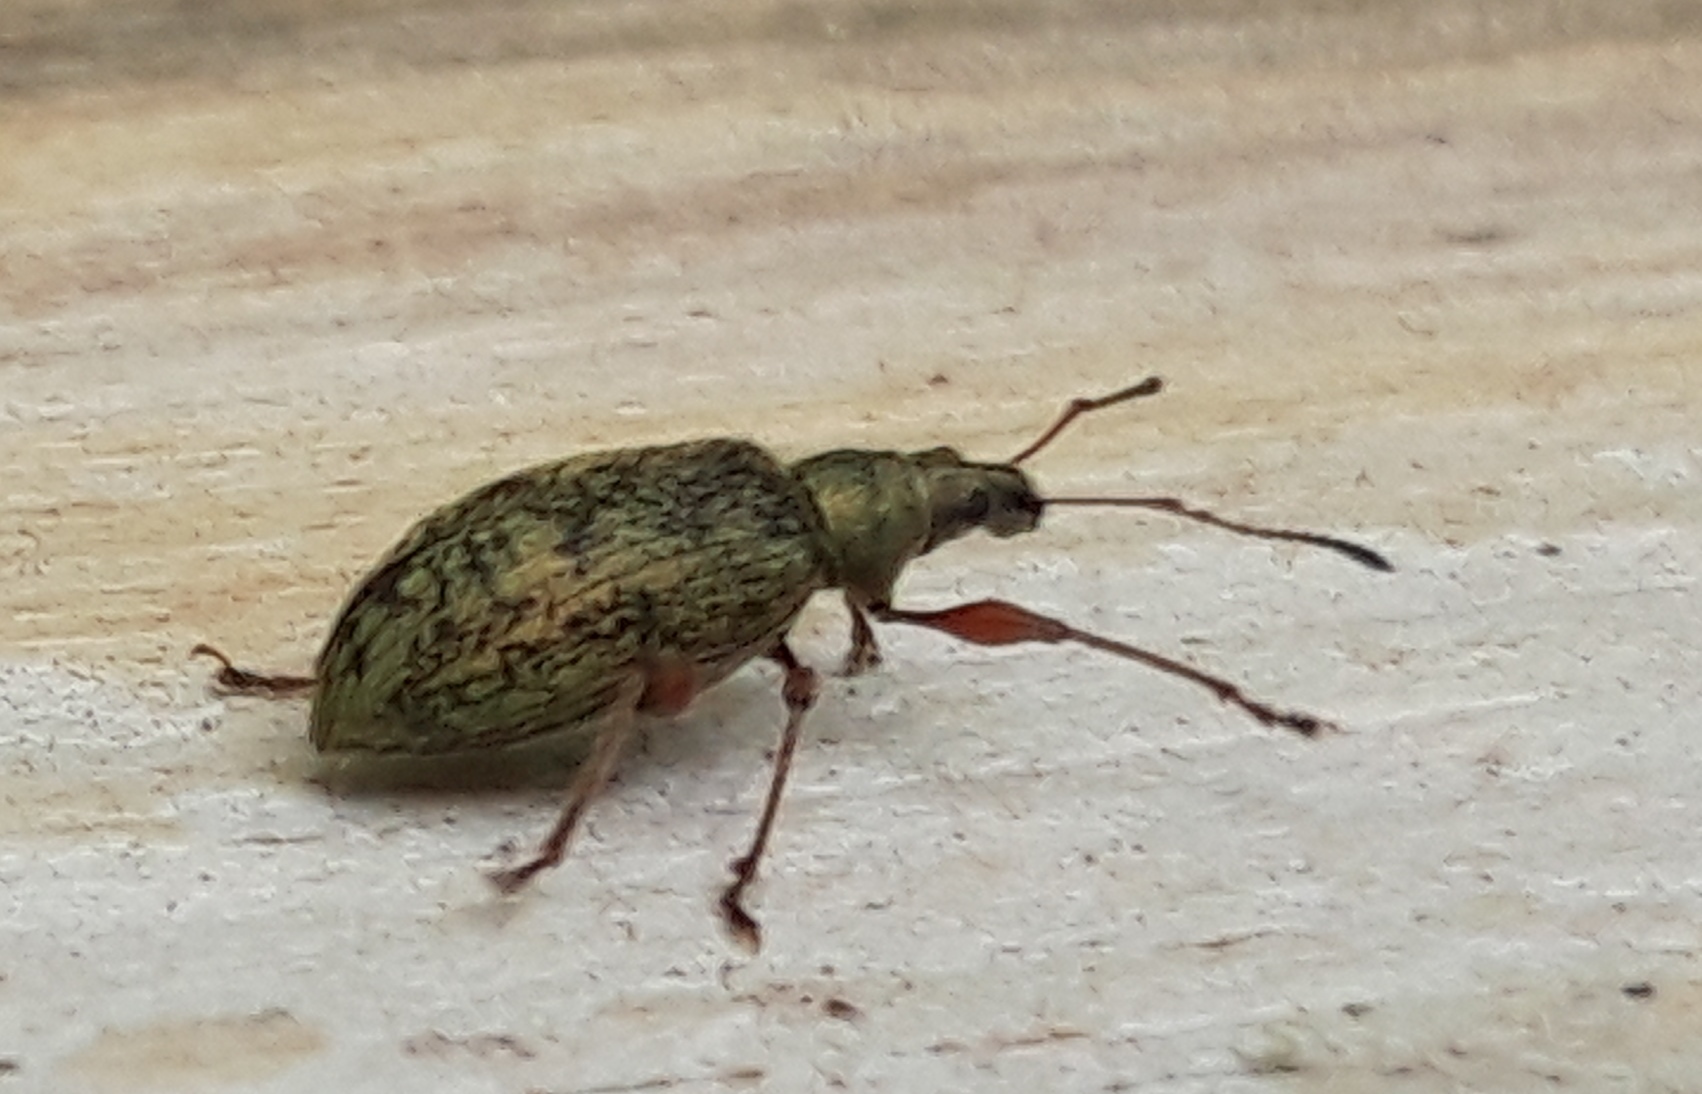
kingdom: Animalia
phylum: Arthropoda
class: Insecta
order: Coleoptera
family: Curculionidae
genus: Phyllobius
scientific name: Phyllobius
